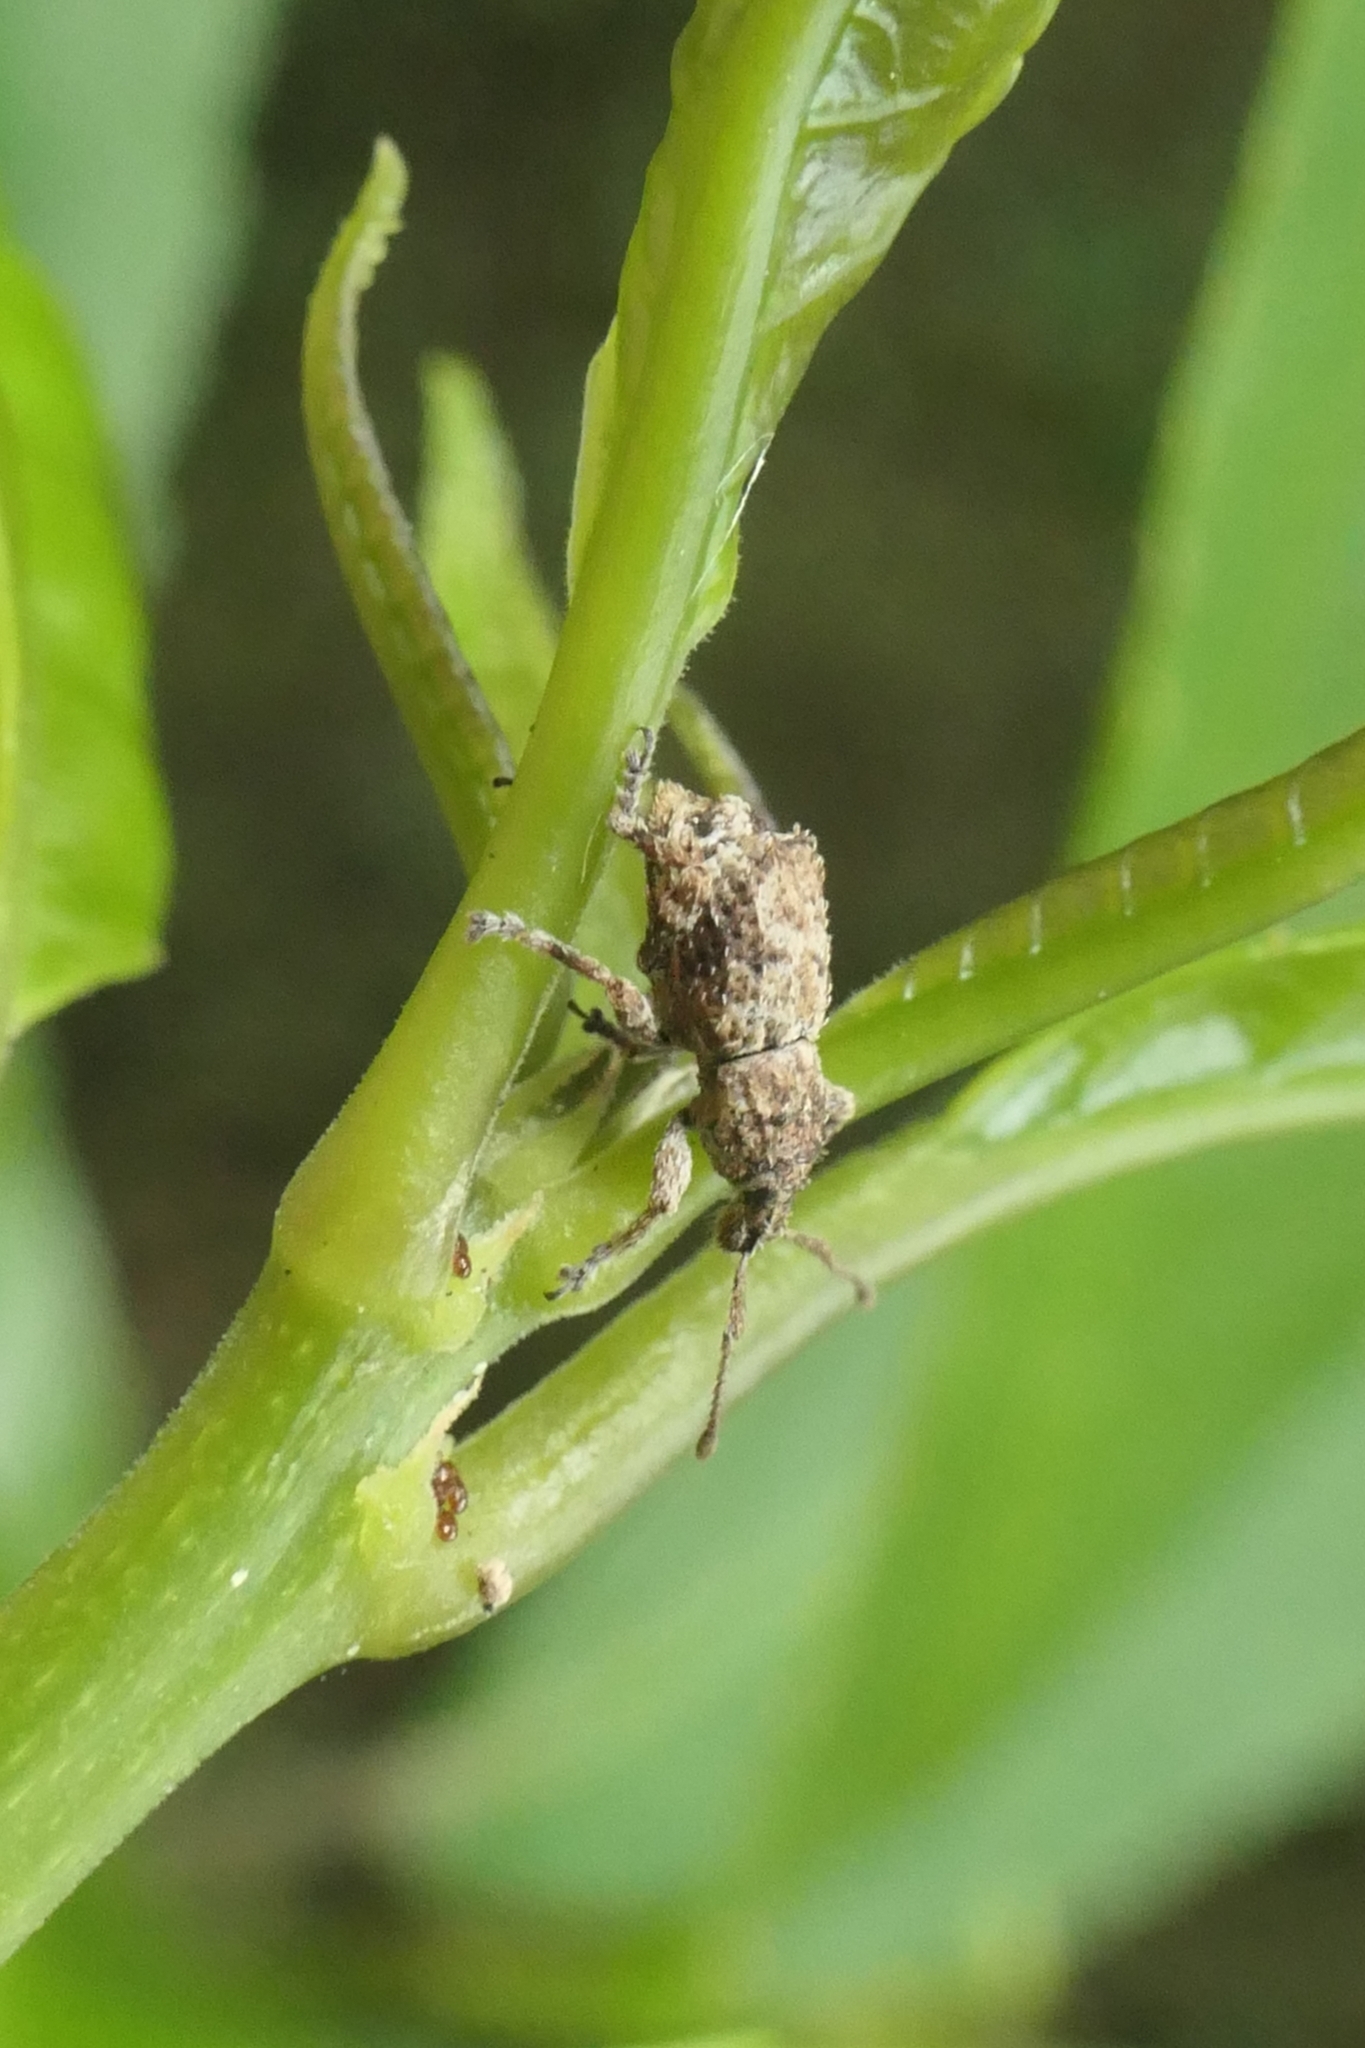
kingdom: Animalia
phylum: Arthropoda
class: Insecta
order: Coleoptera
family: Curculionidae
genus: Chalepistes
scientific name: Chalepistes asperatus
